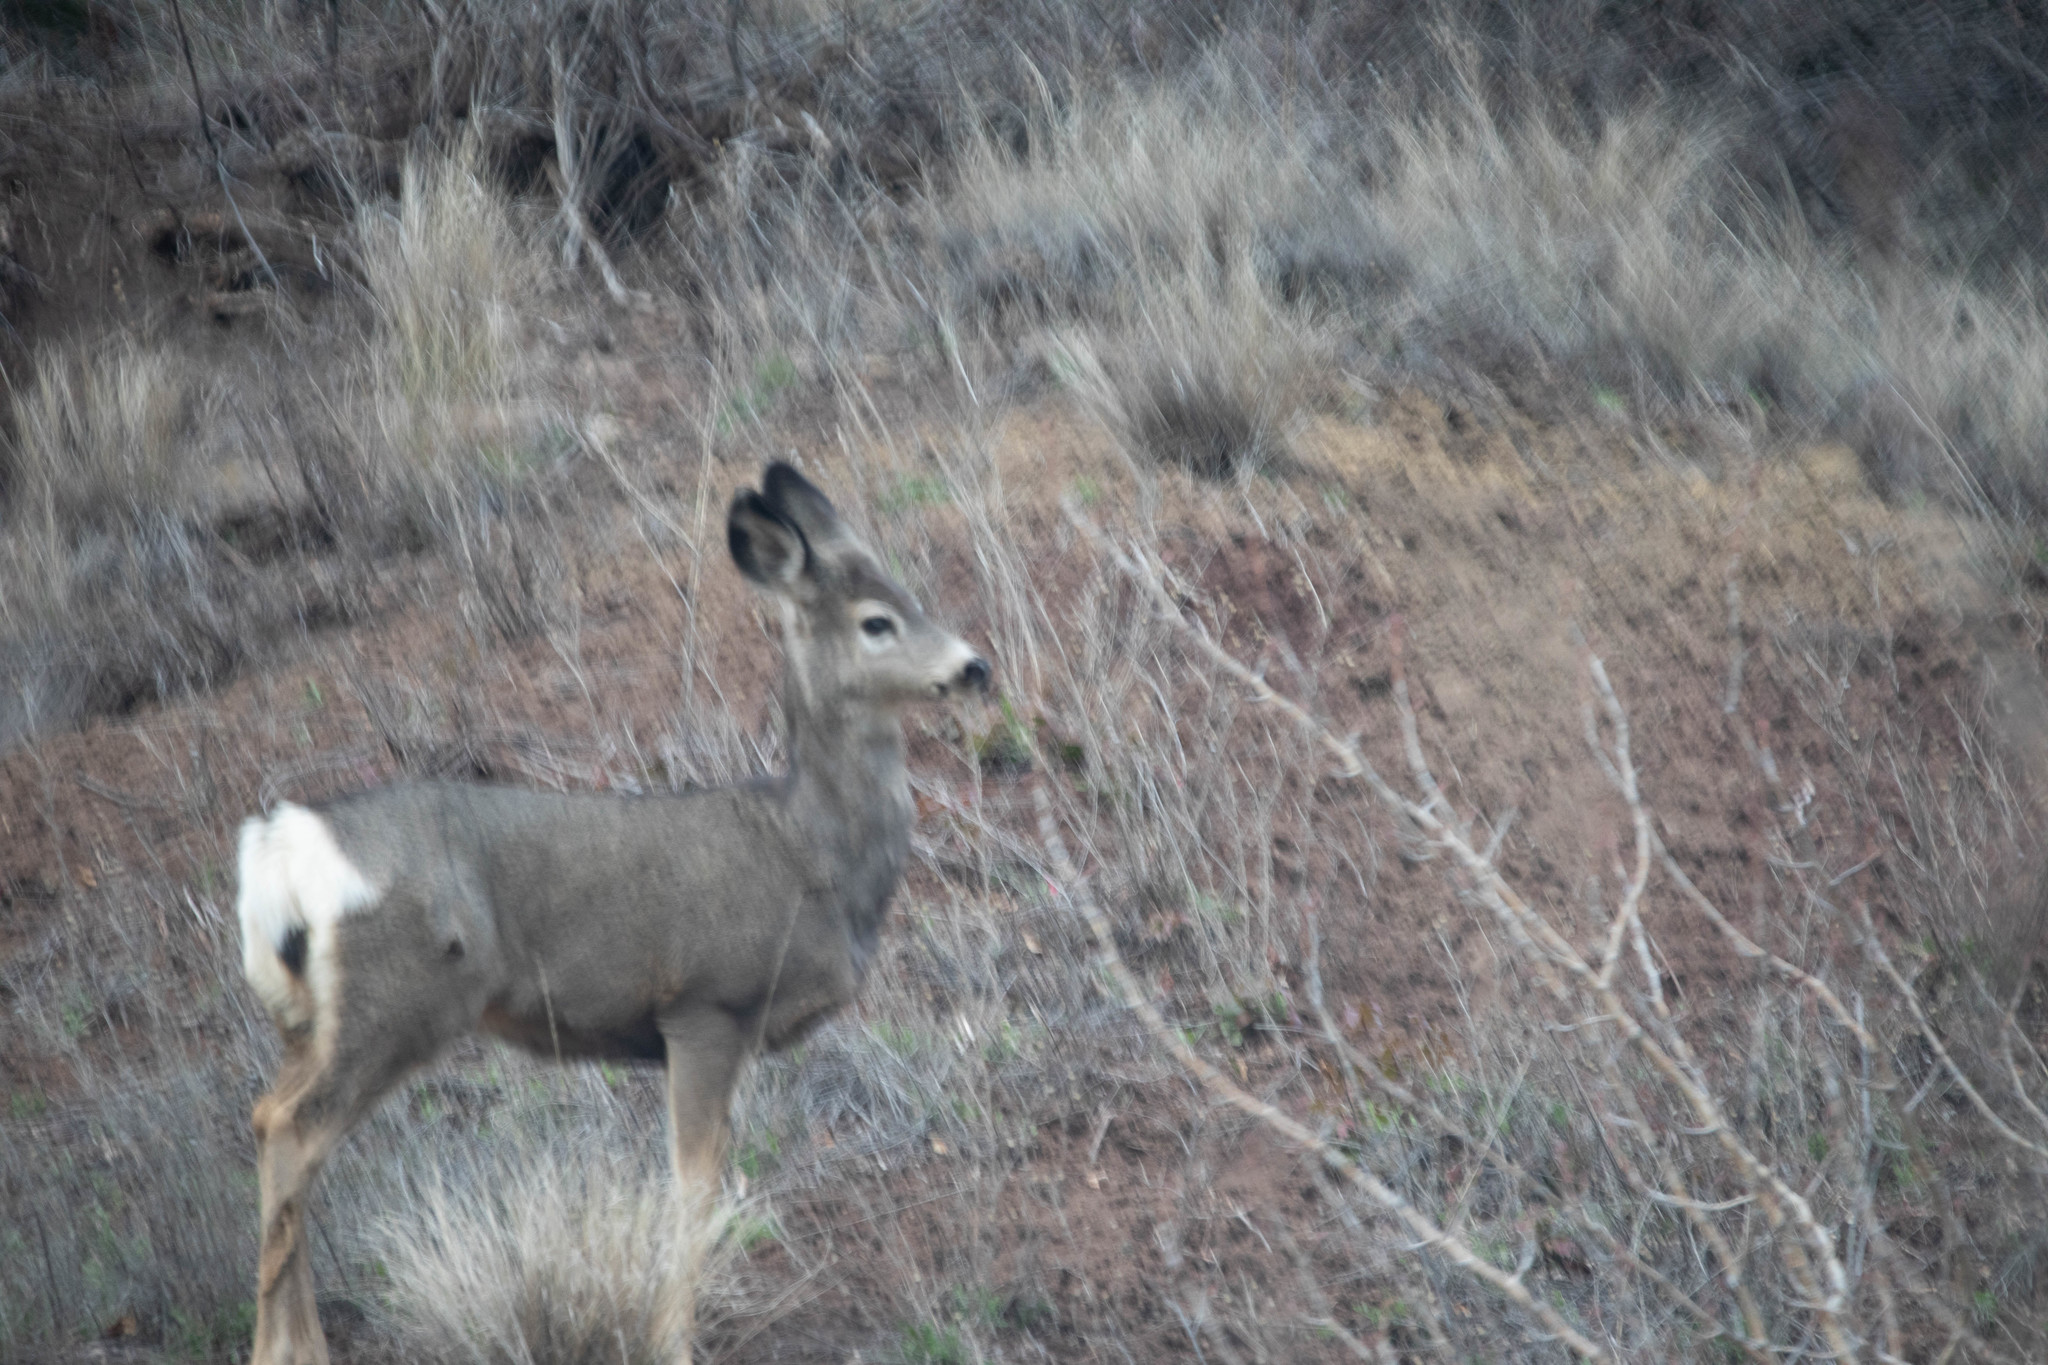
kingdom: Animalia
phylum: Chordata
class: Mammalia
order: Artiodactyla
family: Cervidae
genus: Odocoileus
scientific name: Odocoileus hemionus
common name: Mule deer
